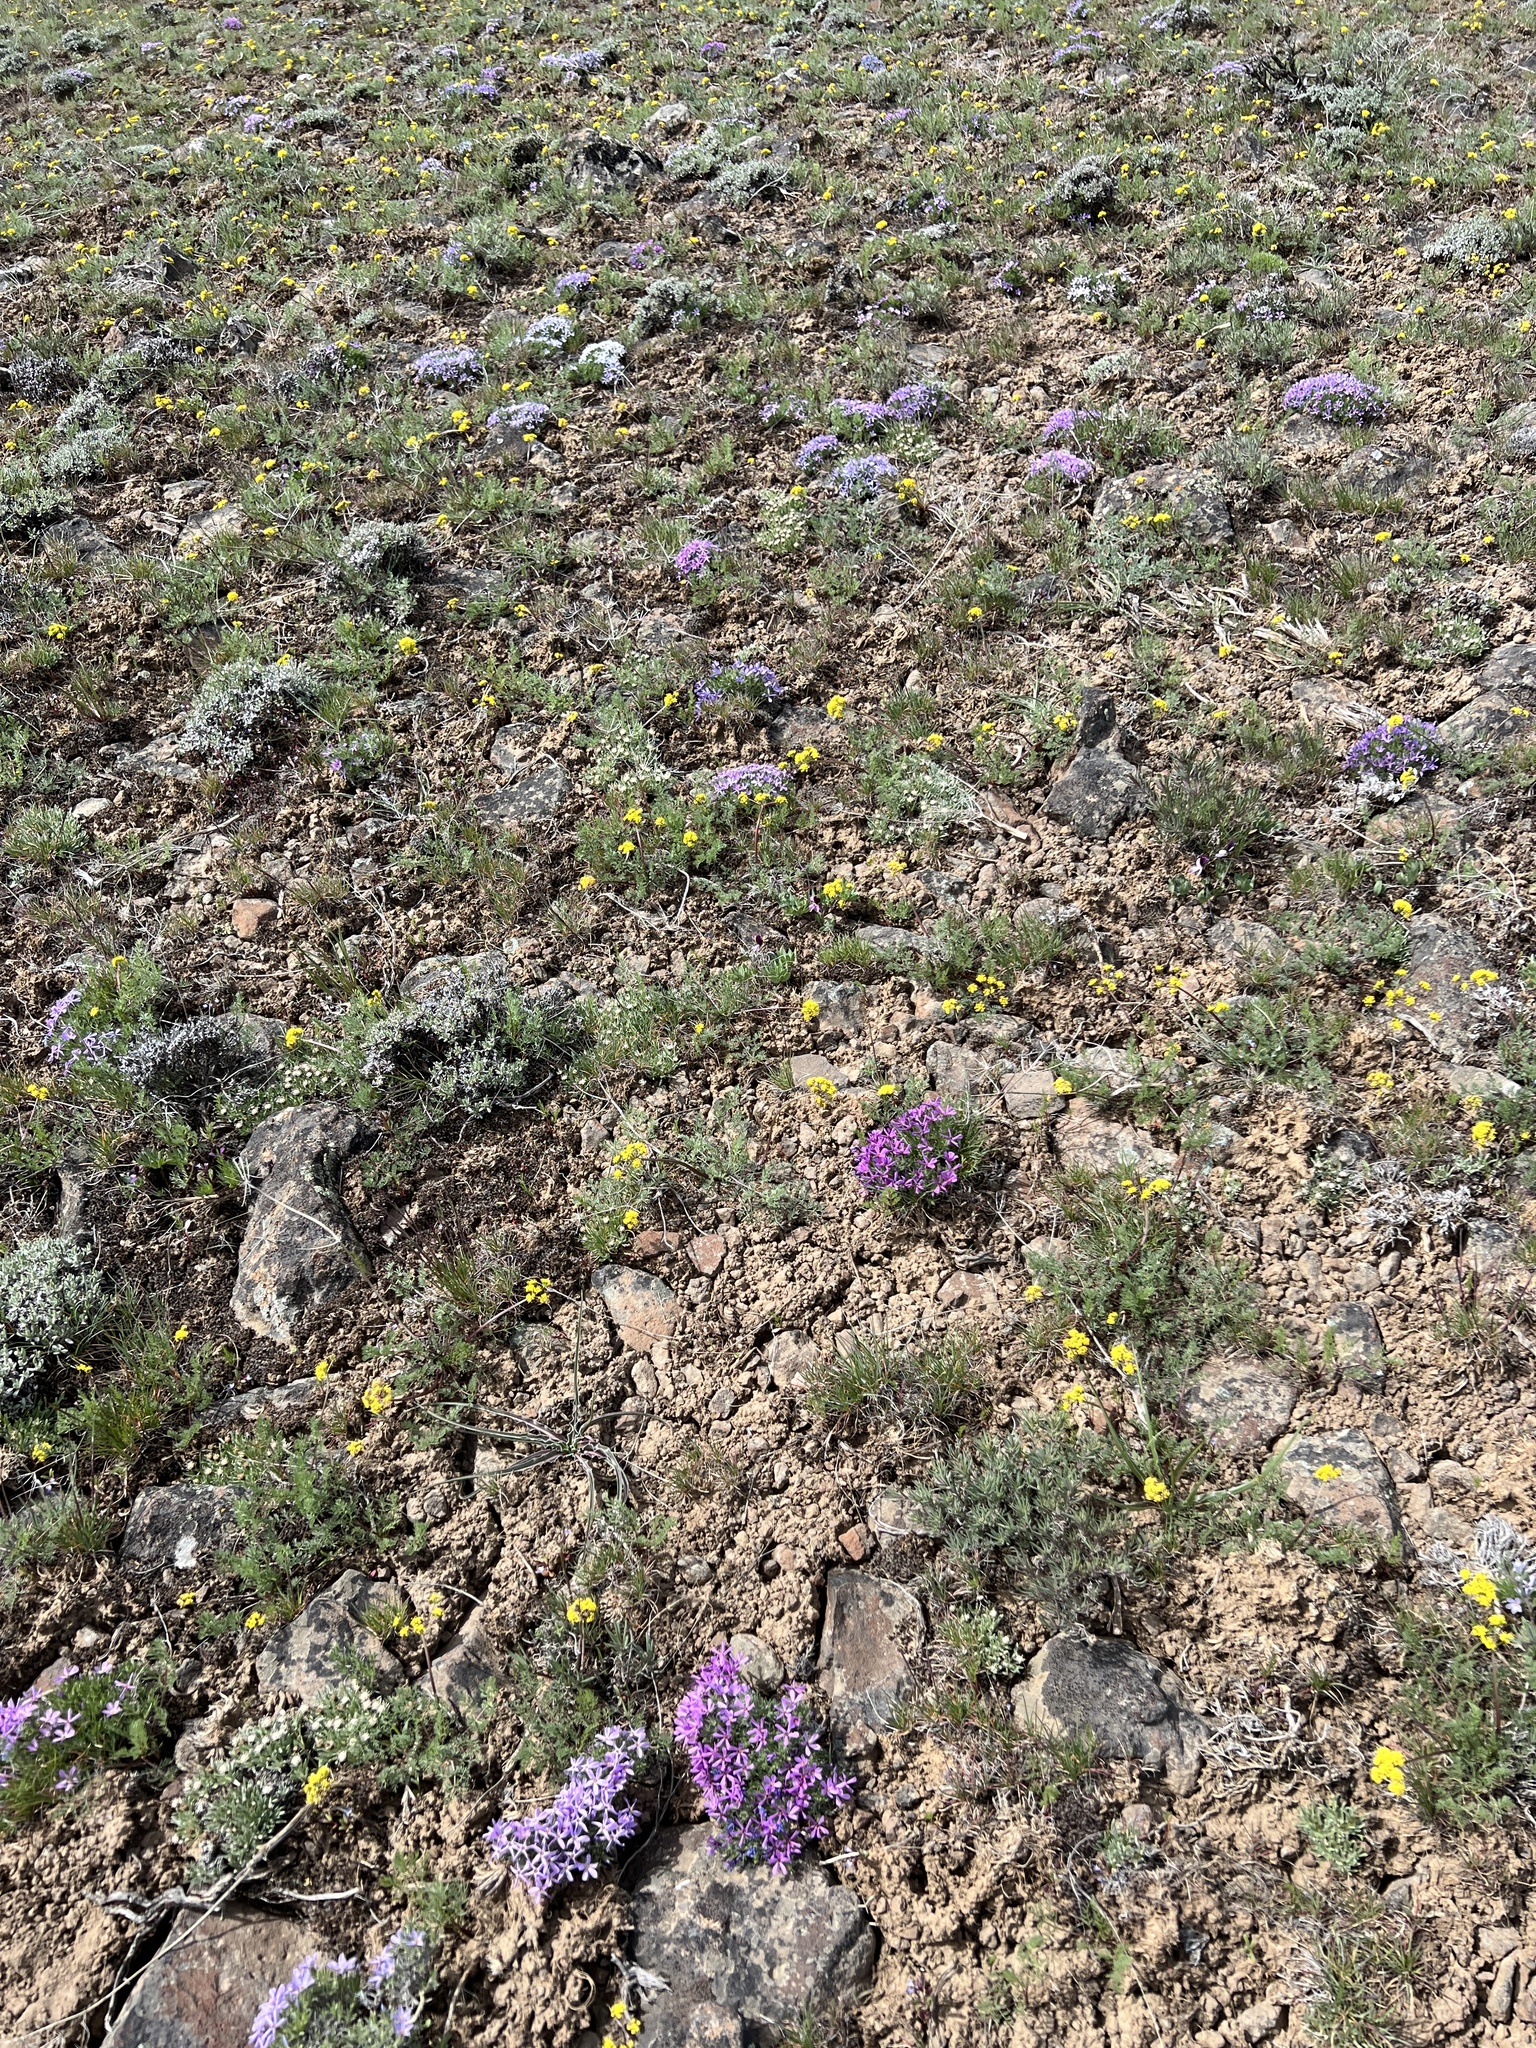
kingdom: Plantae
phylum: Tracheophyta
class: Magnoliopsida
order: Ericales
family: Polemoniaceae
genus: Phlox
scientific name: Phlox douglasii
